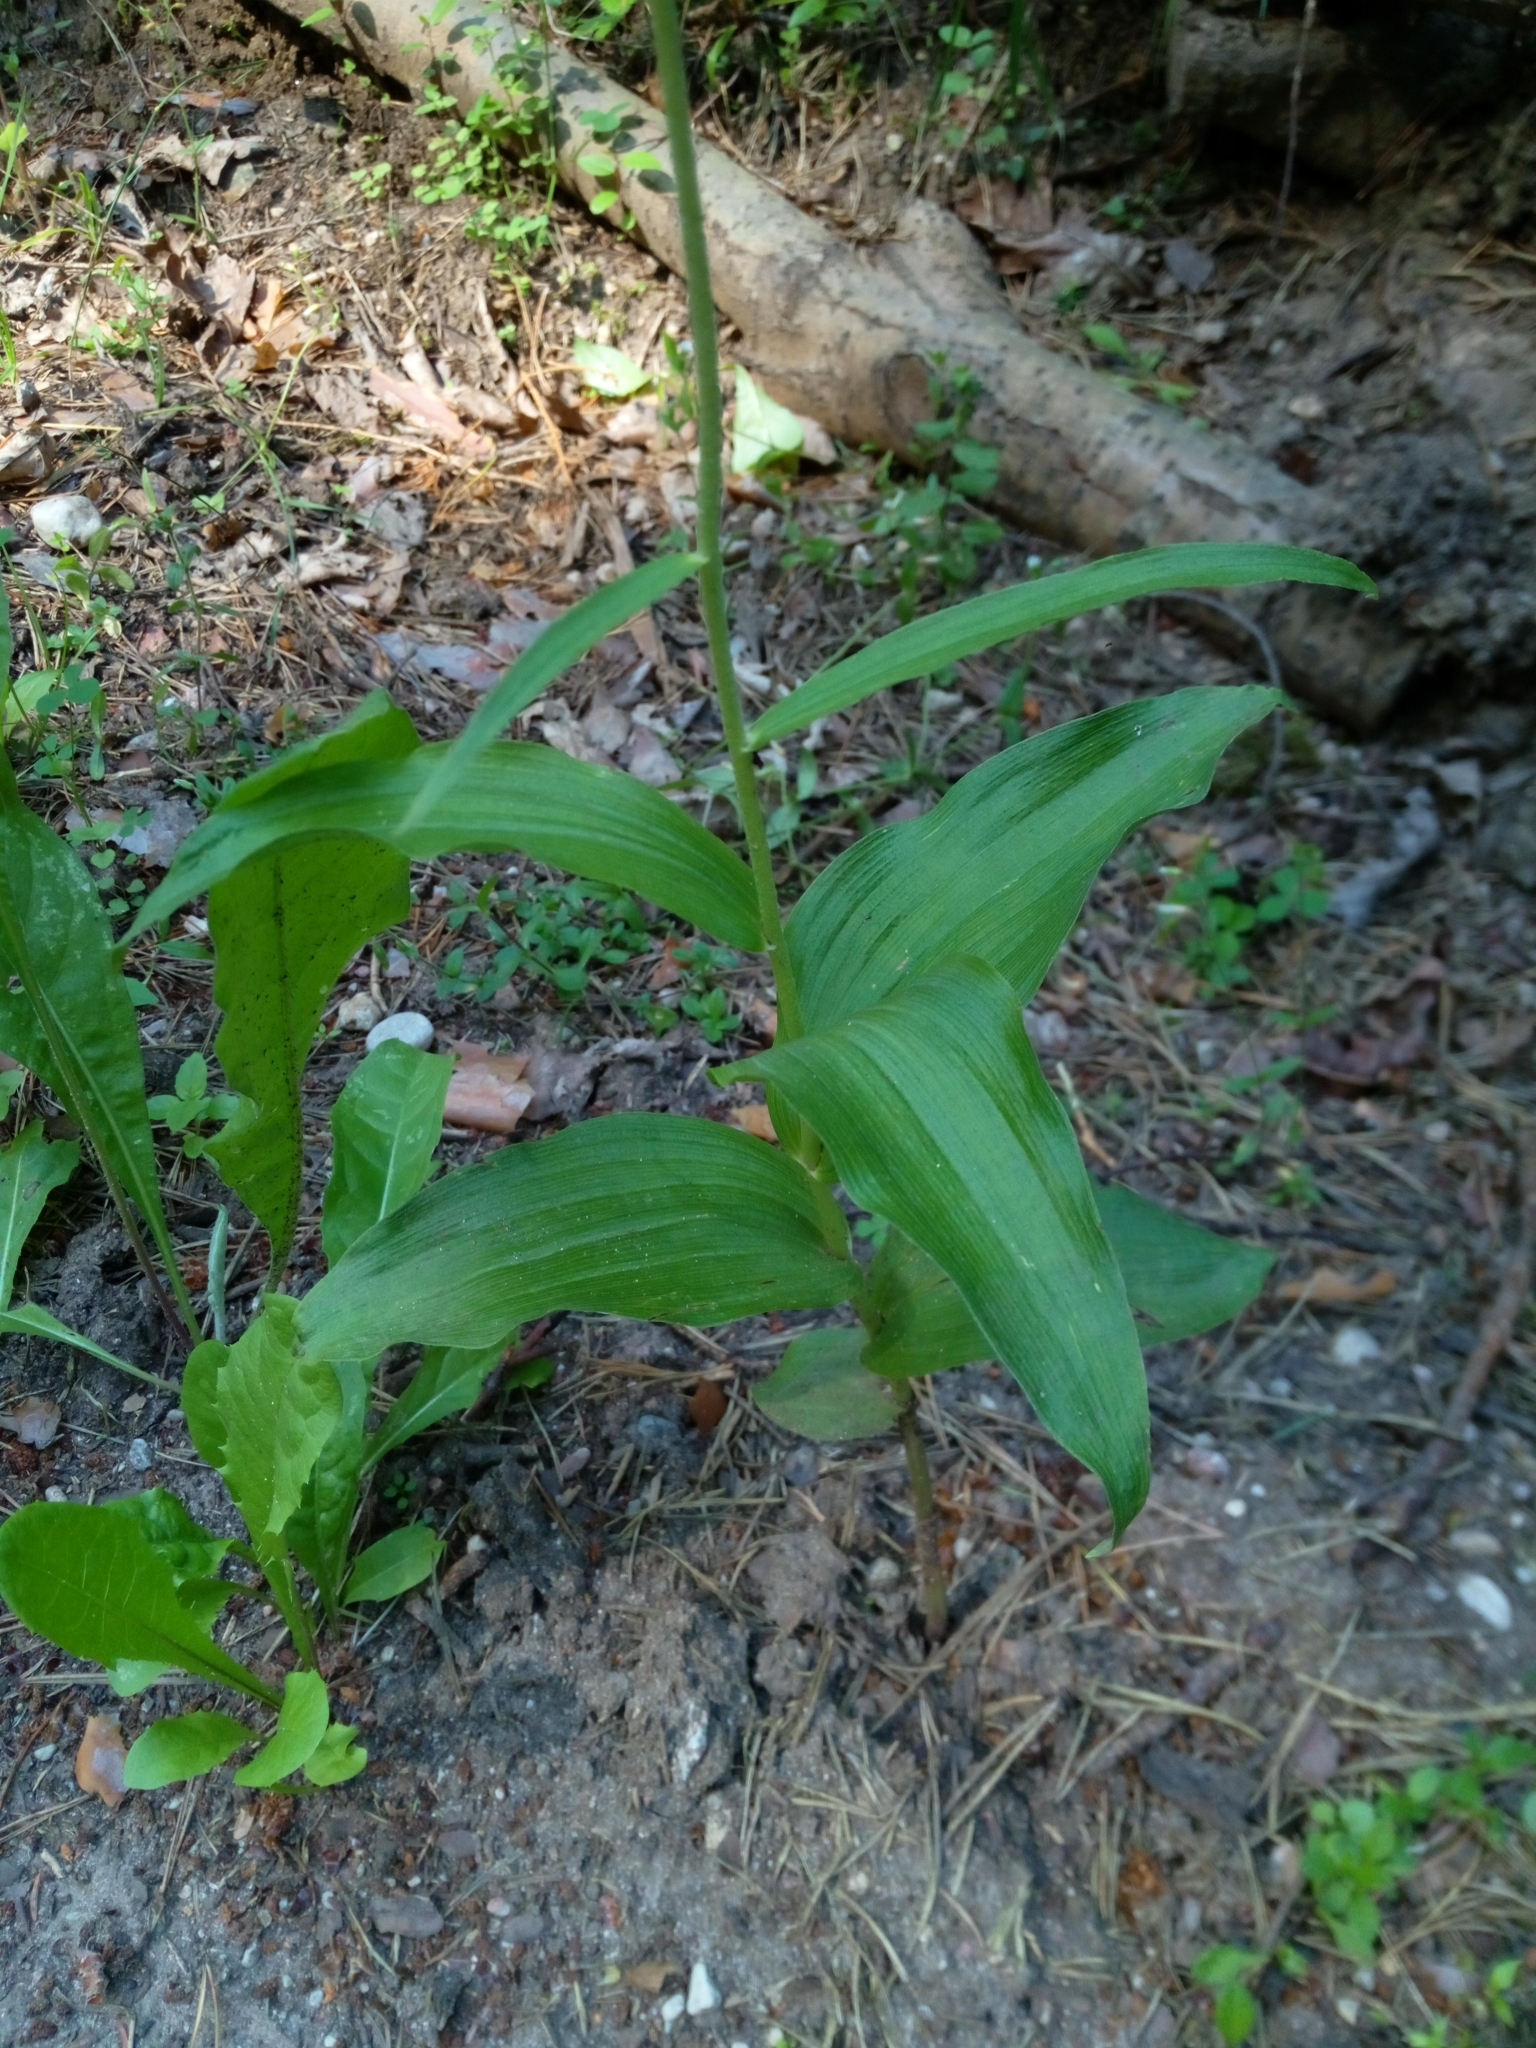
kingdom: Plantae
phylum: Tracheophyta
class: Liliopsida
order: Asparagales
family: Orchidaceae
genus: Epipactis
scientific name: Epipactis helleborine
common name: Broad-leaved helleborine
